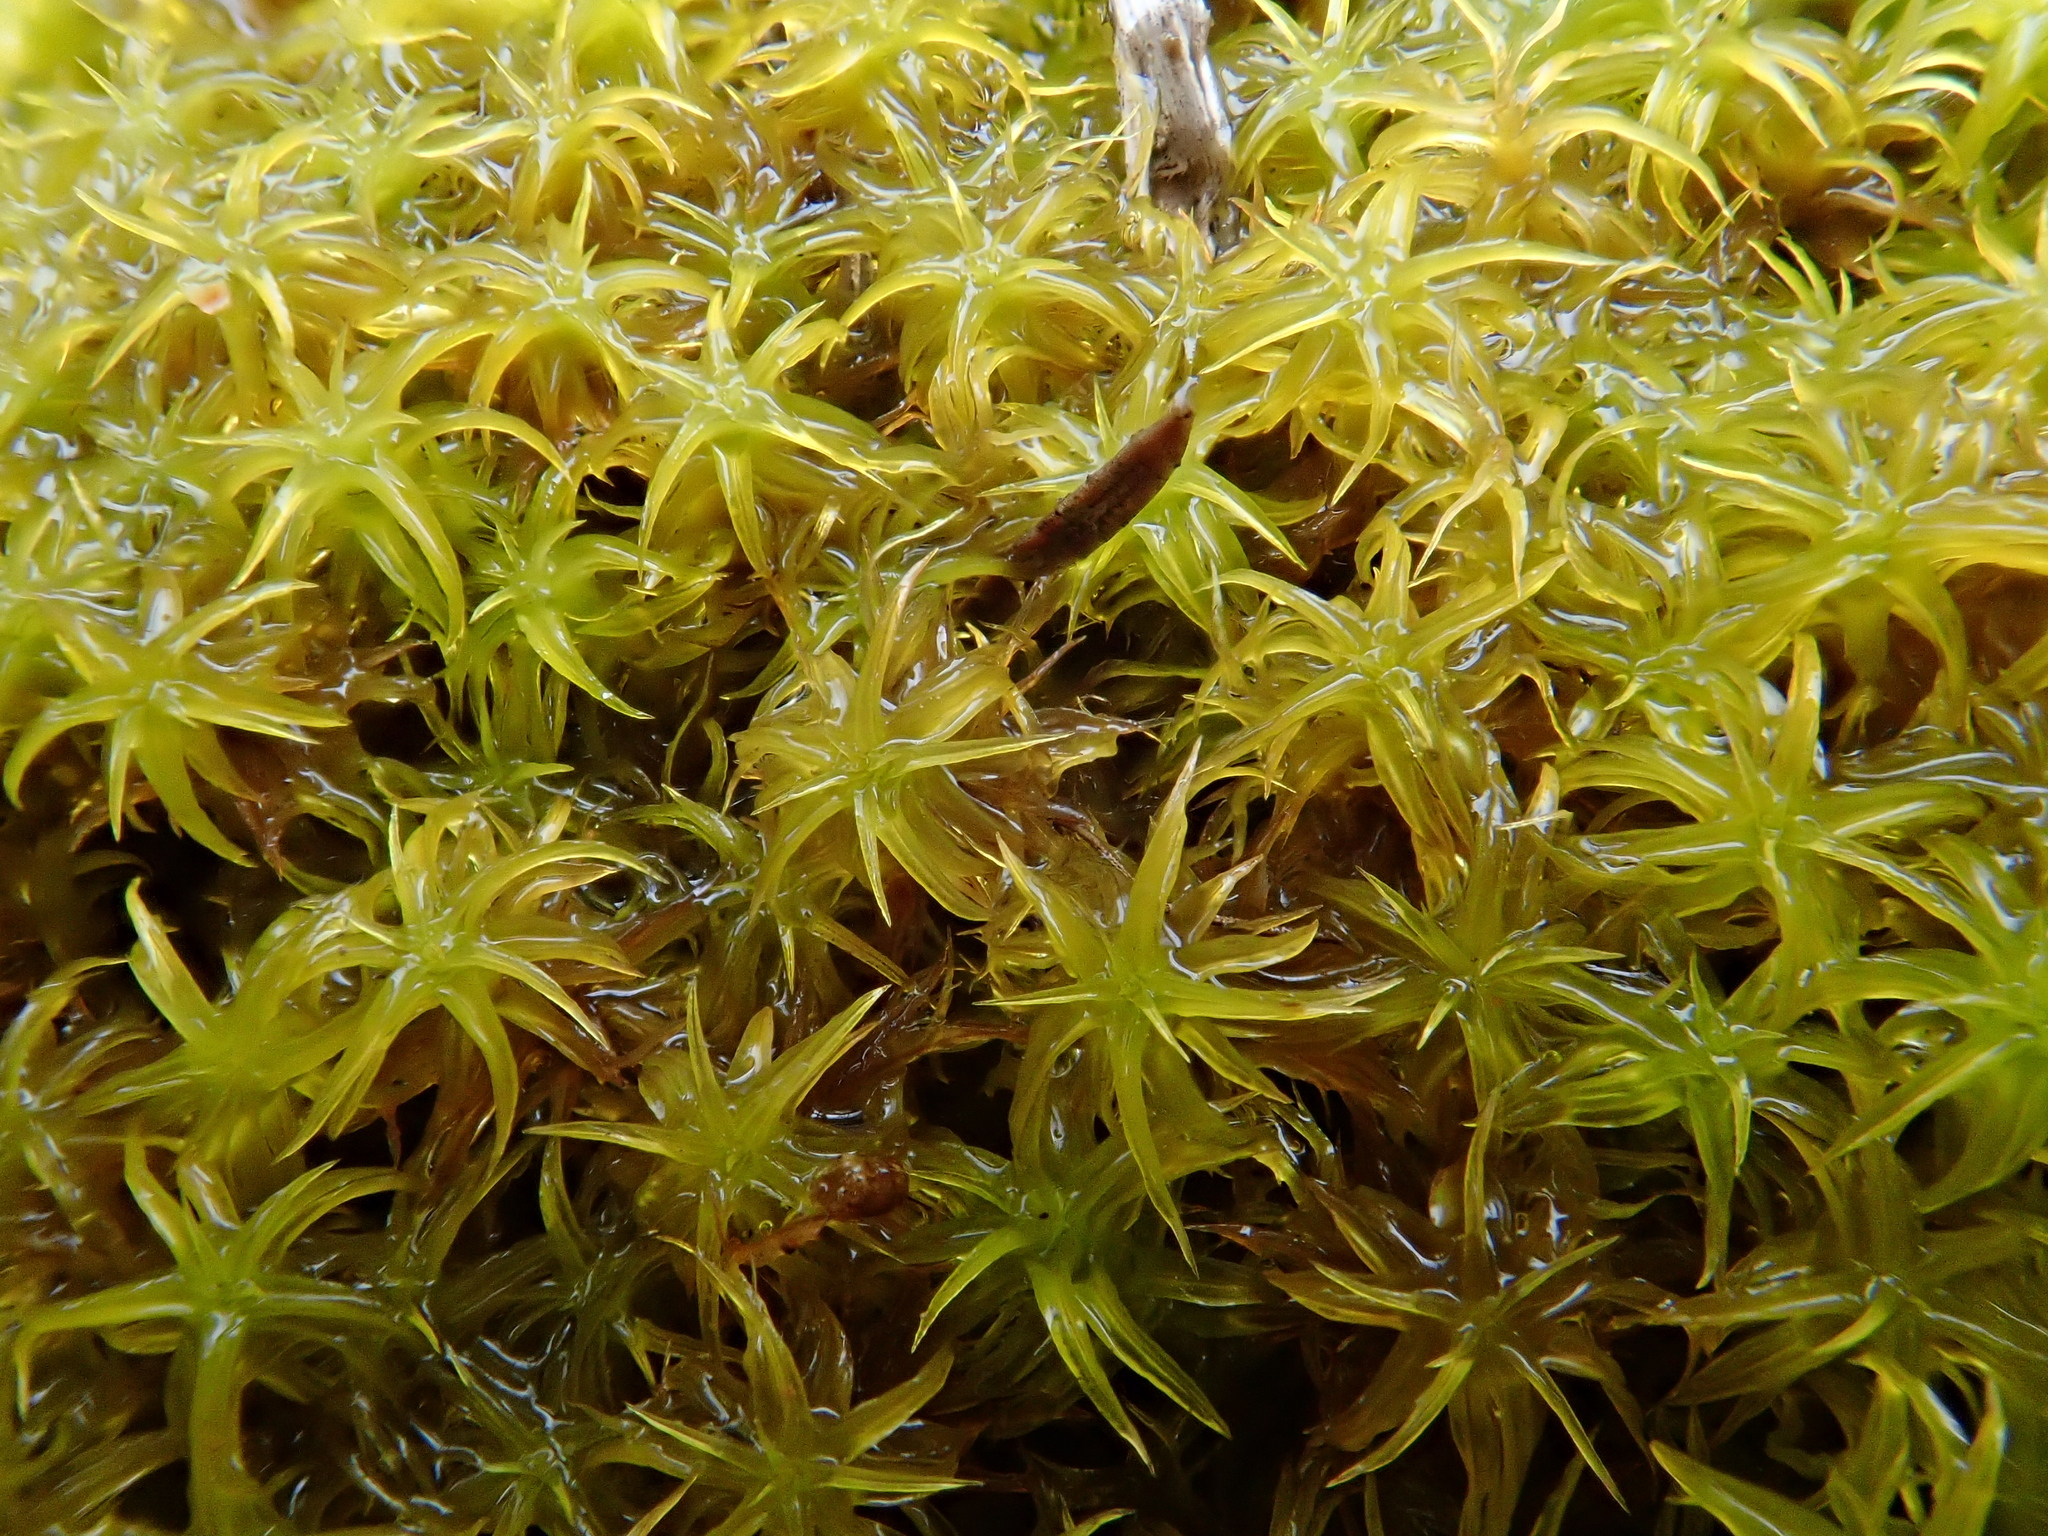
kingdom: Plantae
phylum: Bryophyta
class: Bryopsida
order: Pottiales
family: Pottiaceae
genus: Pleurochaete
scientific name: Pleurochaete squarrosa
